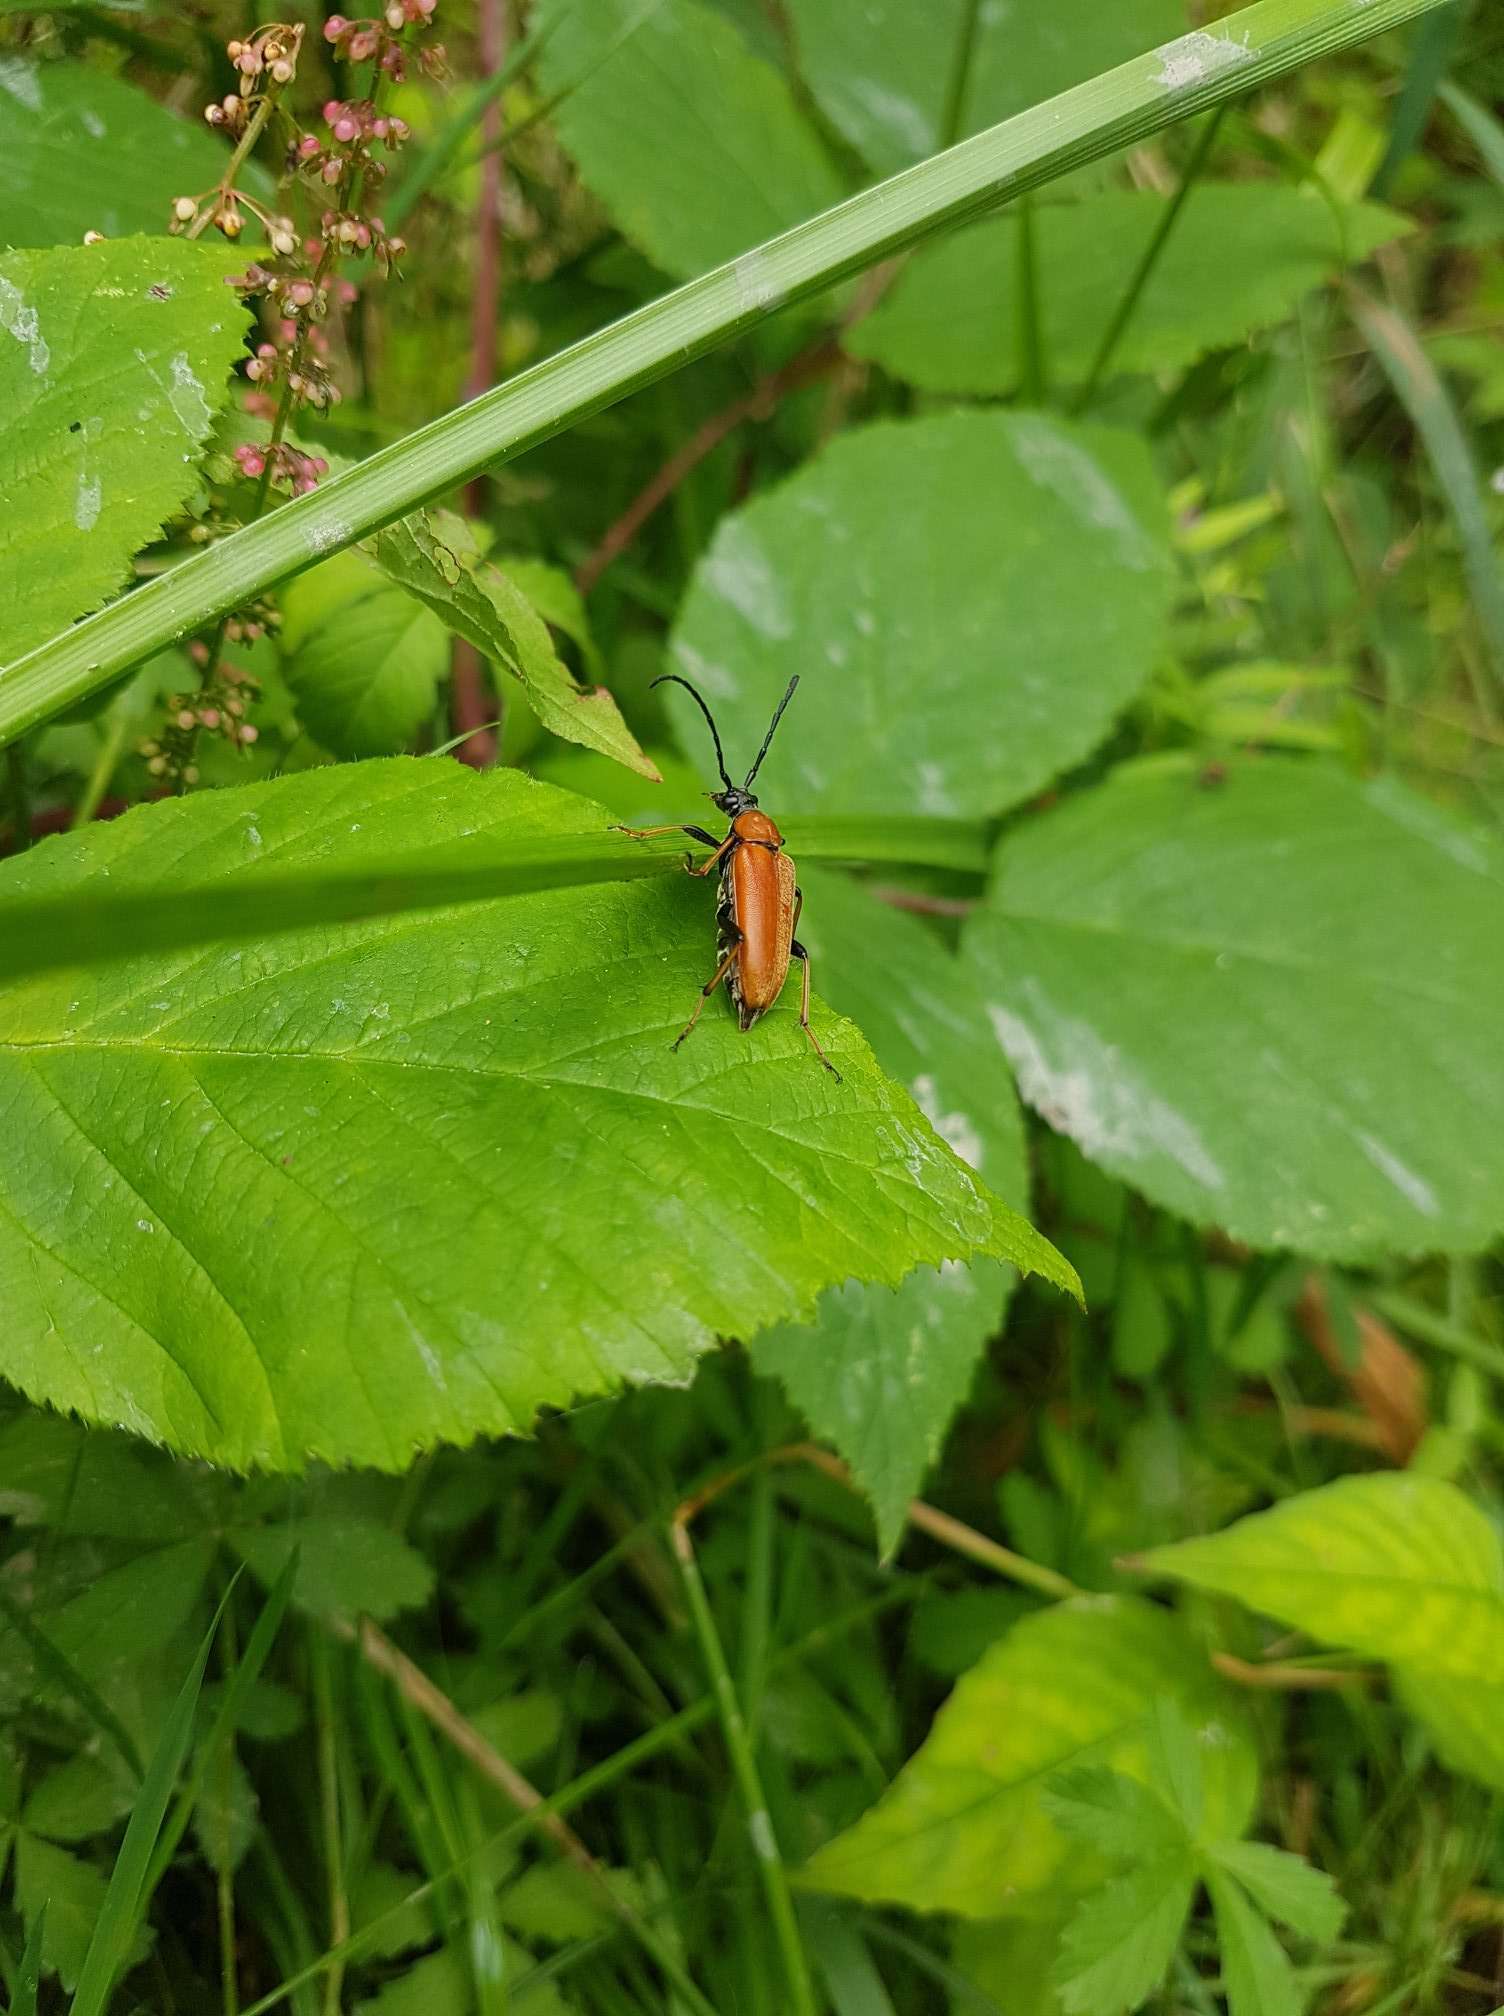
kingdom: Animalia
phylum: Arthropoda
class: Insecta
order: Coleoptera
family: Cerambycidae
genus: Stictoleptura
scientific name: Stictoleptura rubra
